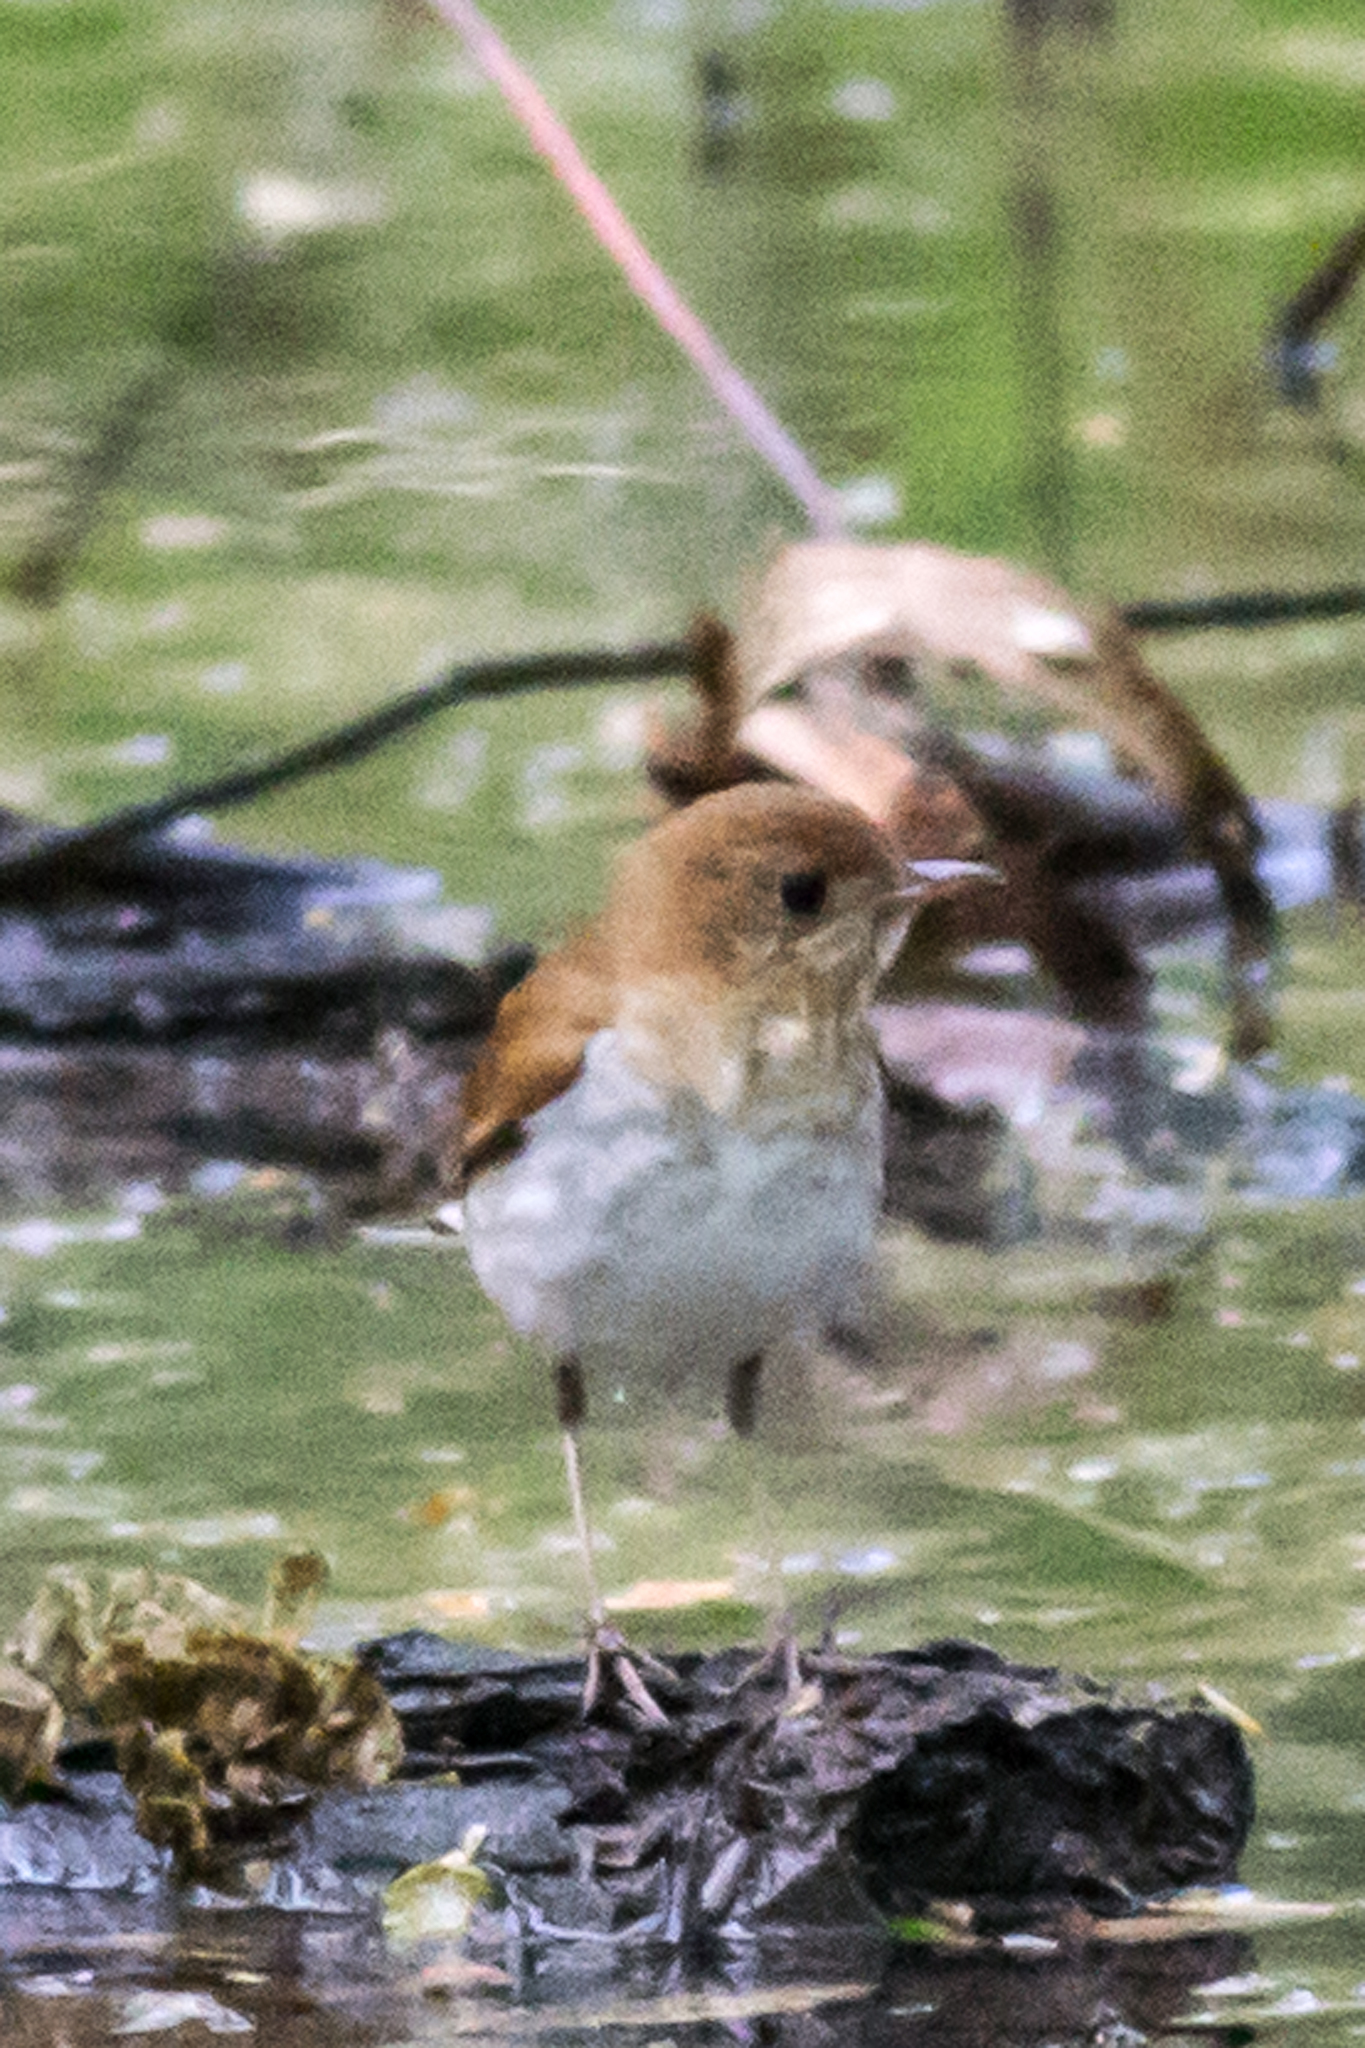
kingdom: Animalia
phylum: Chordata
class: Aves
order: Passeriformes
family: Turdidae
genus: Catharus
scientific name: Catharus fuscescens
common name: Veery
